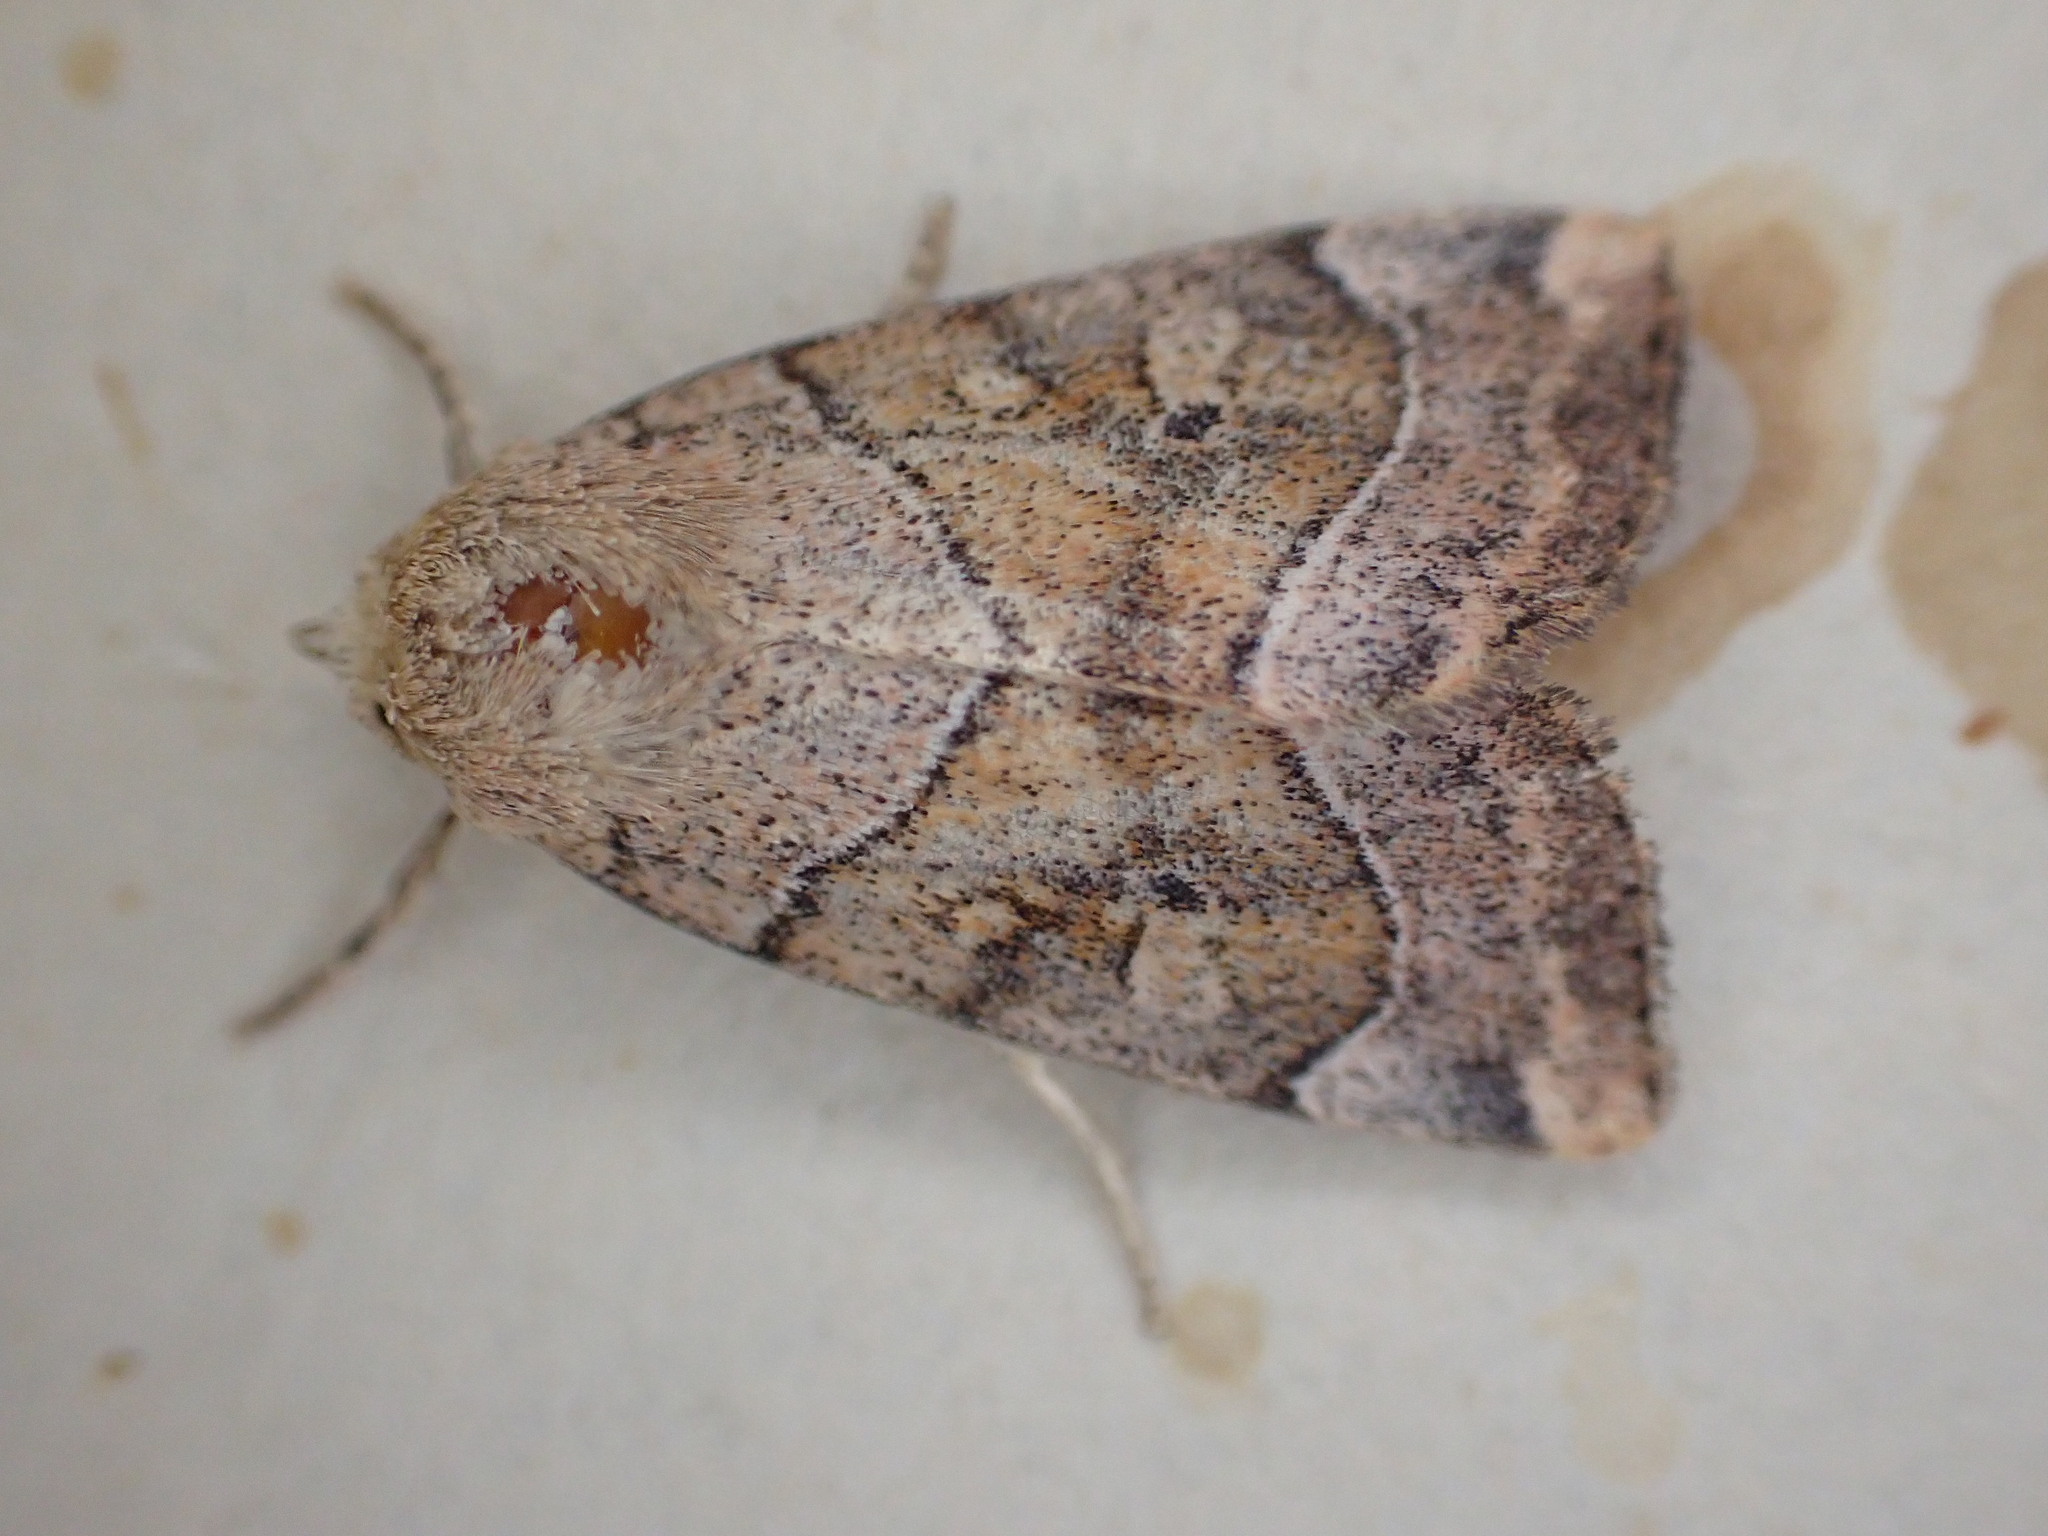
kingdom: Animalia
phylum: Arthropoda
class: Insecta
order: Lepidoptera
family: Noctuidae
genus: Cosmia
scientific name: Cosmia trapezina
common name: Dun-bar
